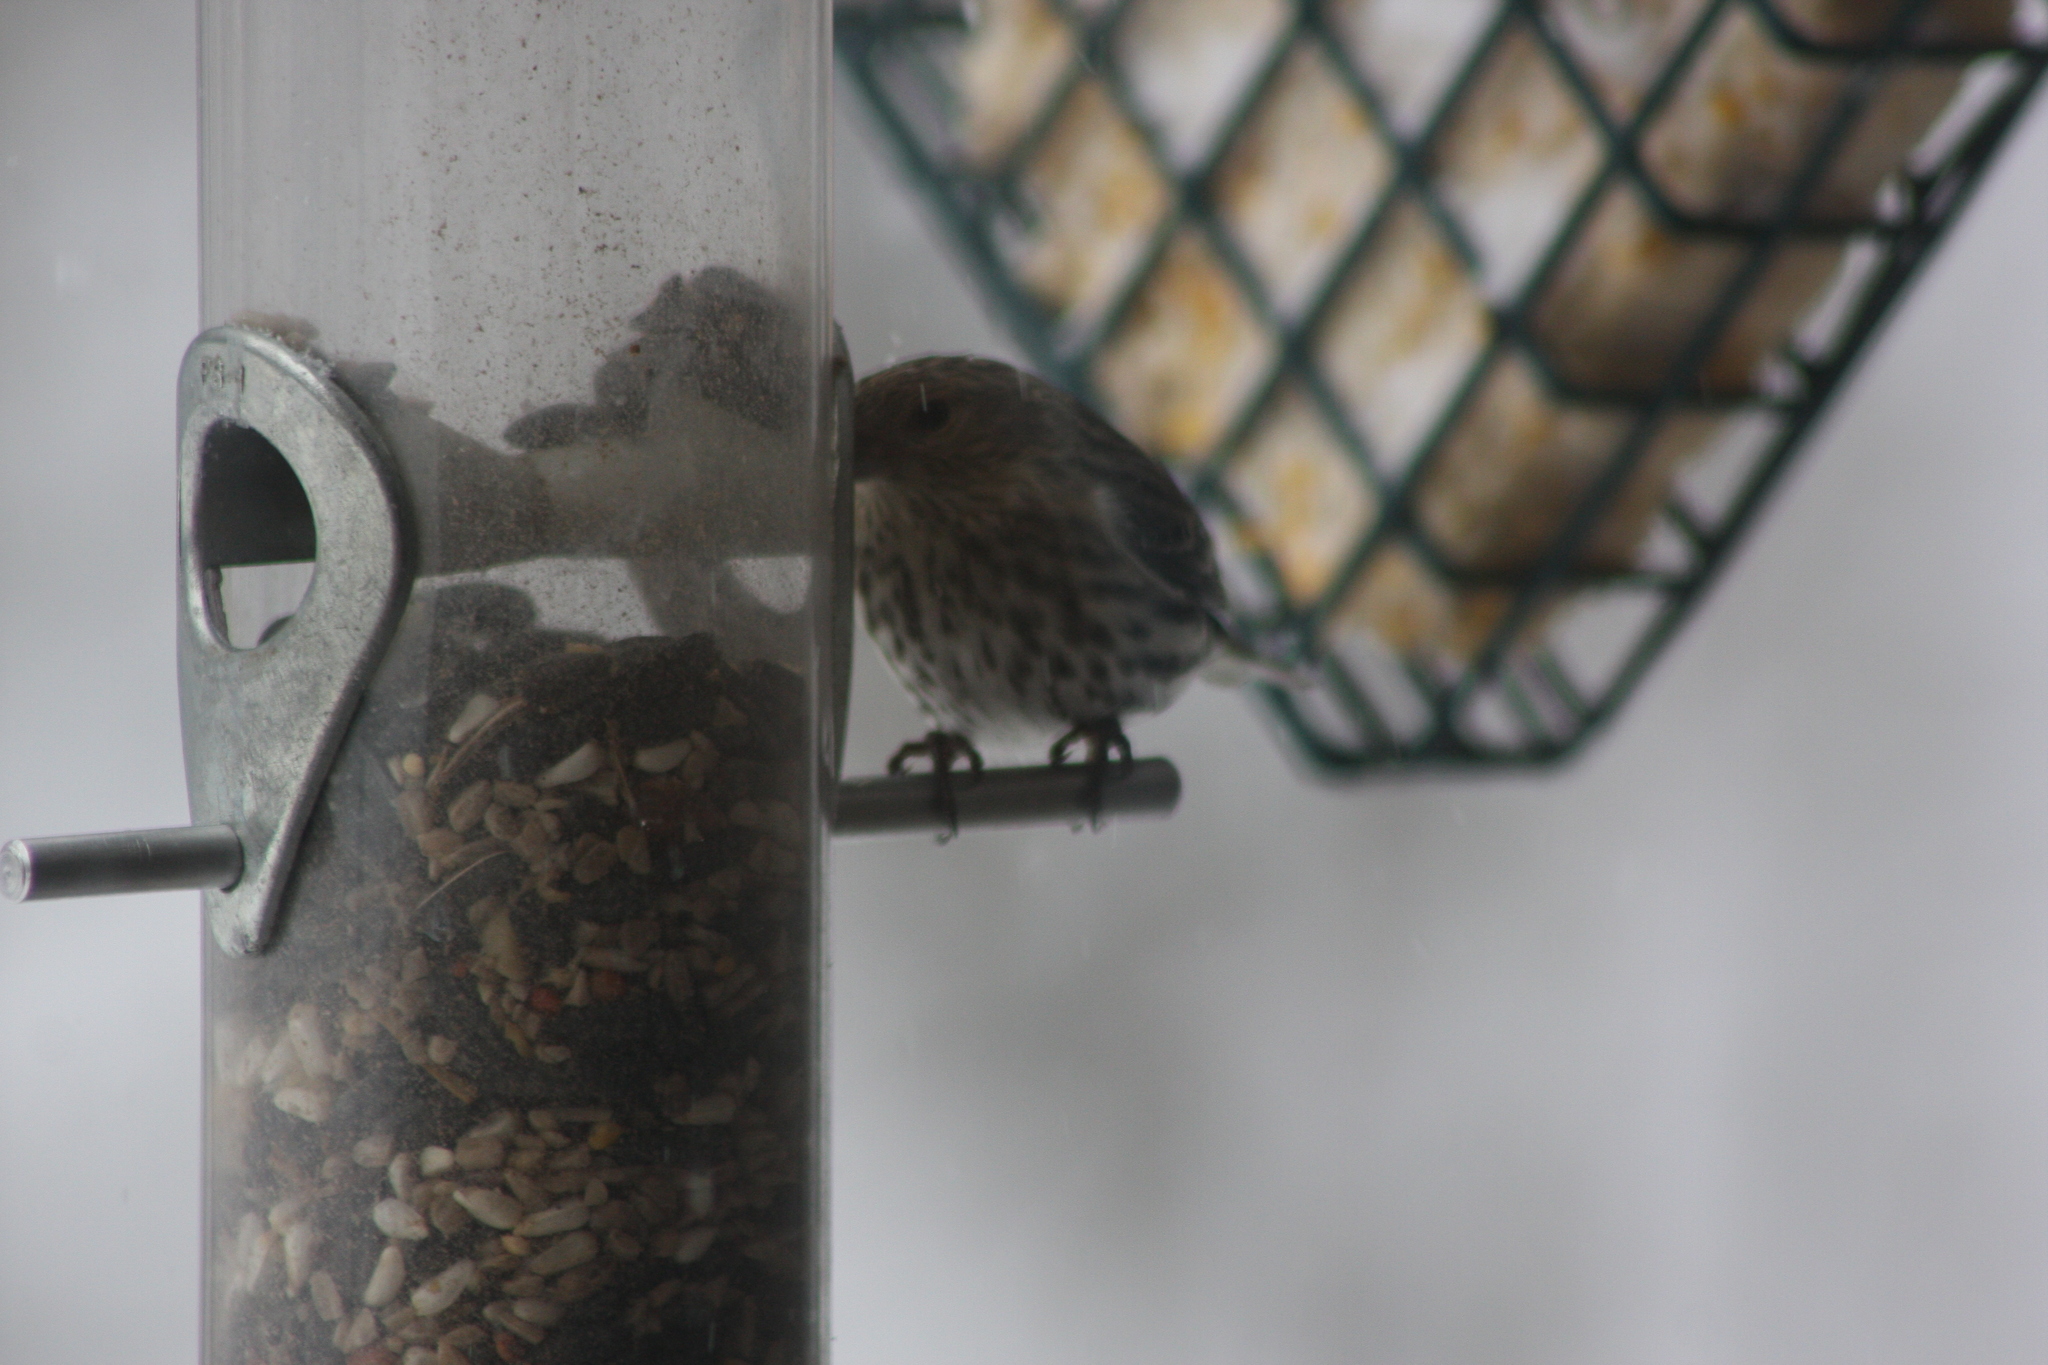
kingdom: Animalia
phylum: Chordata
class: Aves
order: Passeriformes
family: Fringillidae
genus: Spinus
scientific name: Spinus pinus
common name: Pine siskin
